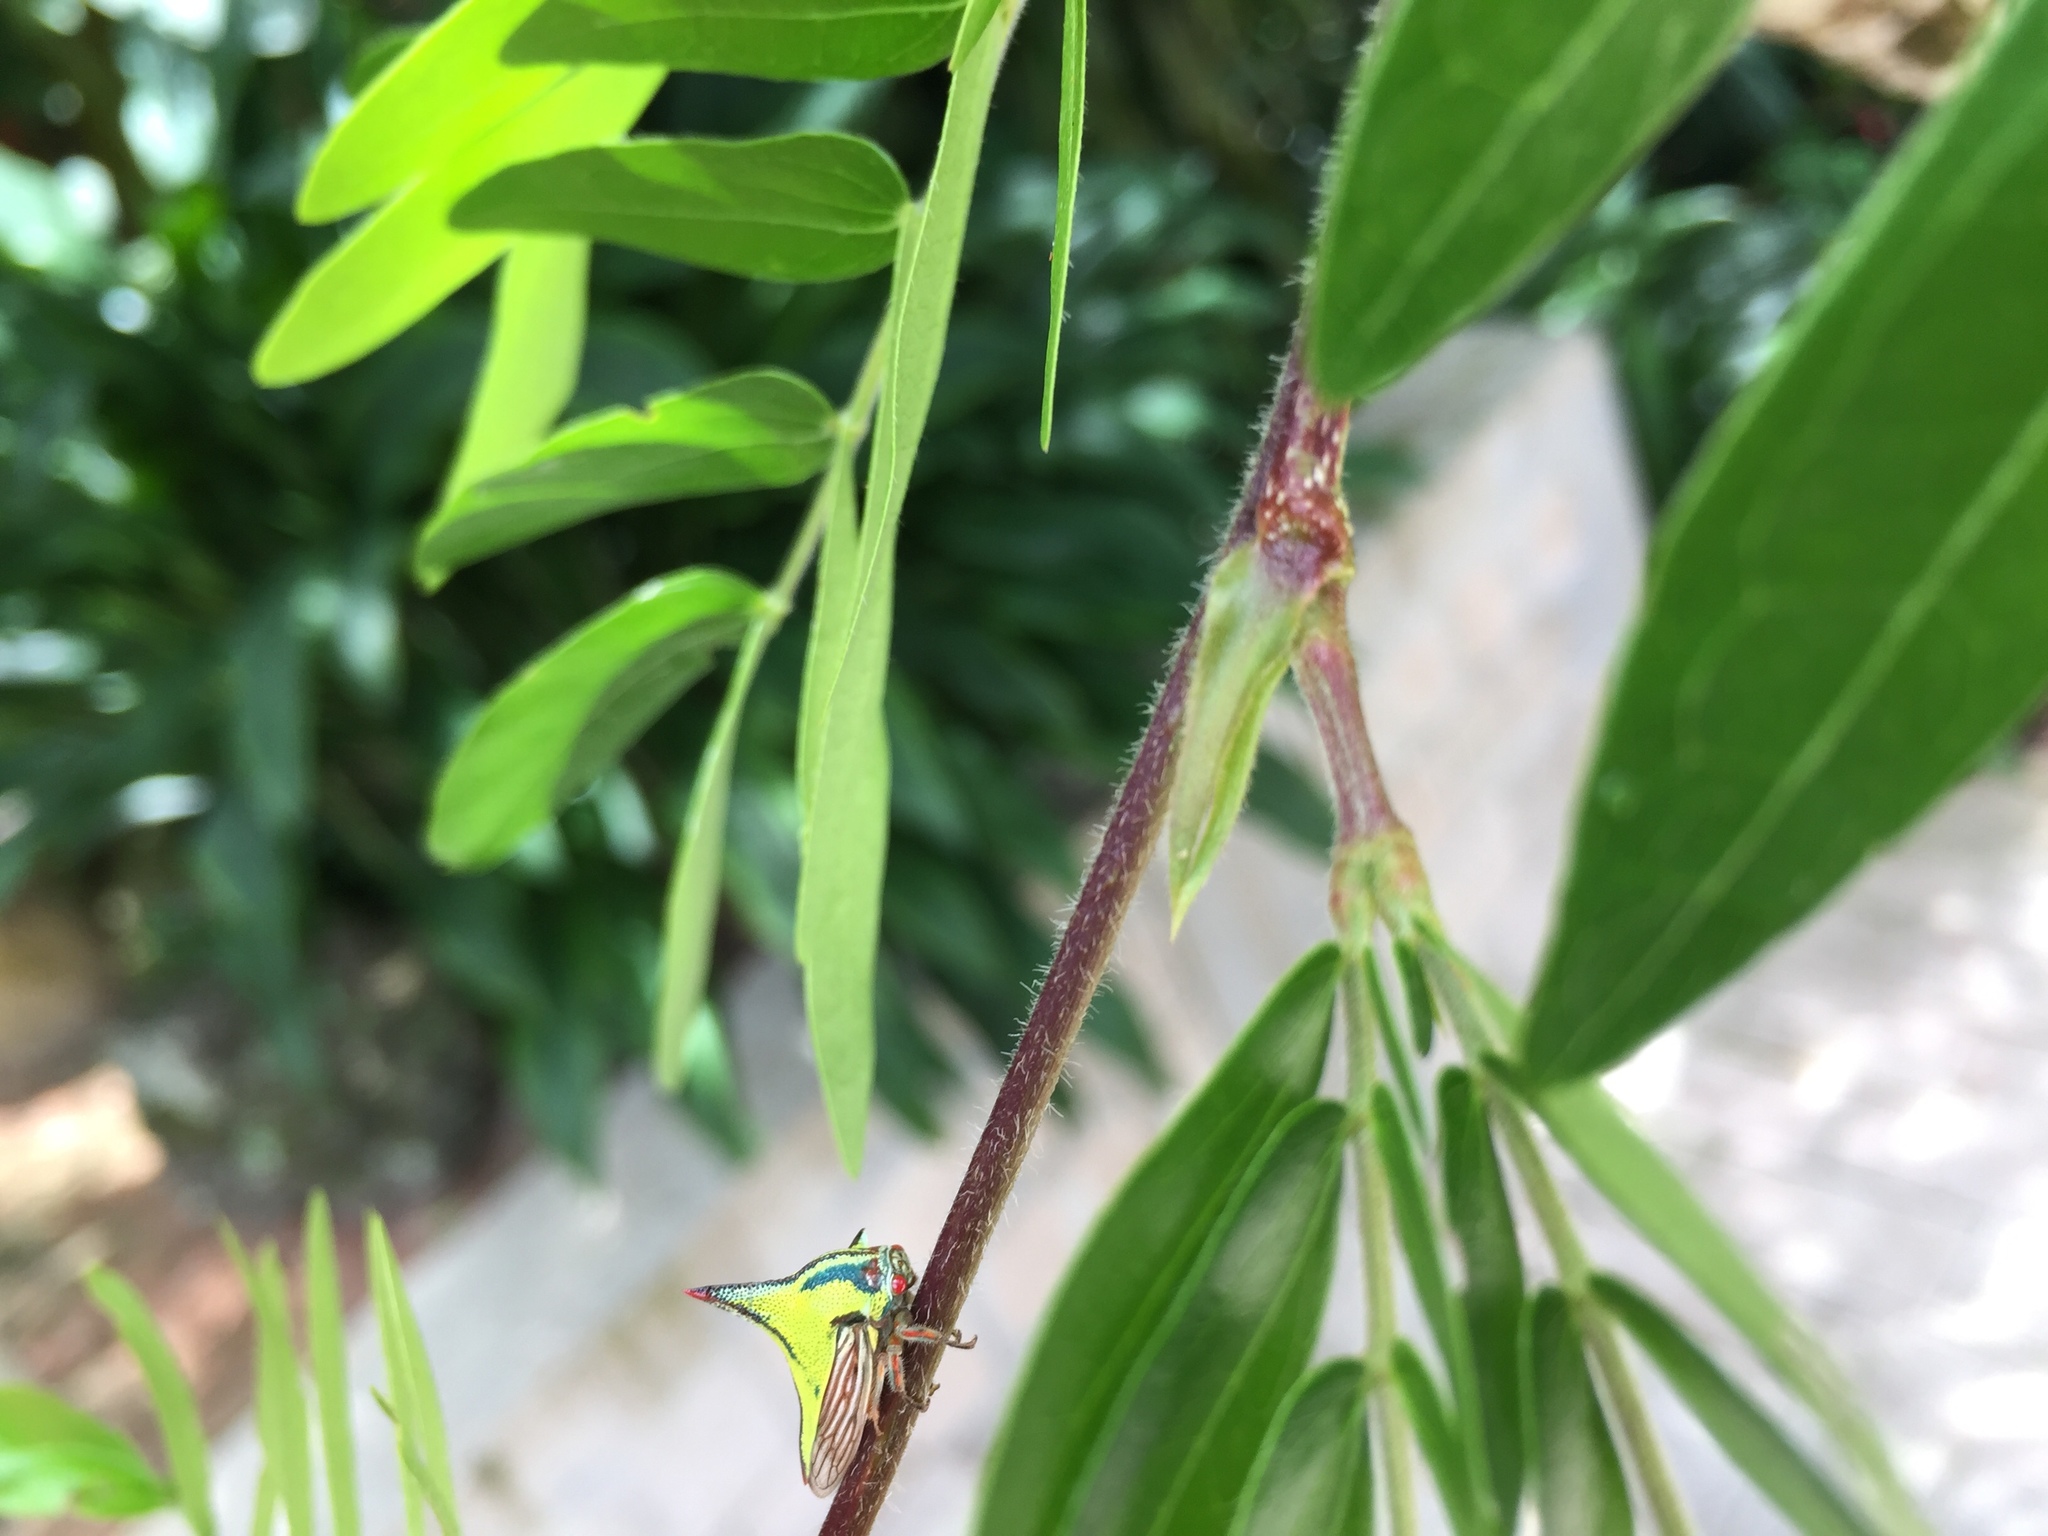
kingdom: Animalia
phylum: Arthropoda
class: Insecta
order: Hemiptera
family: Membracidae
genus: Umbonia
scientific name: Umbonia crassicornis
